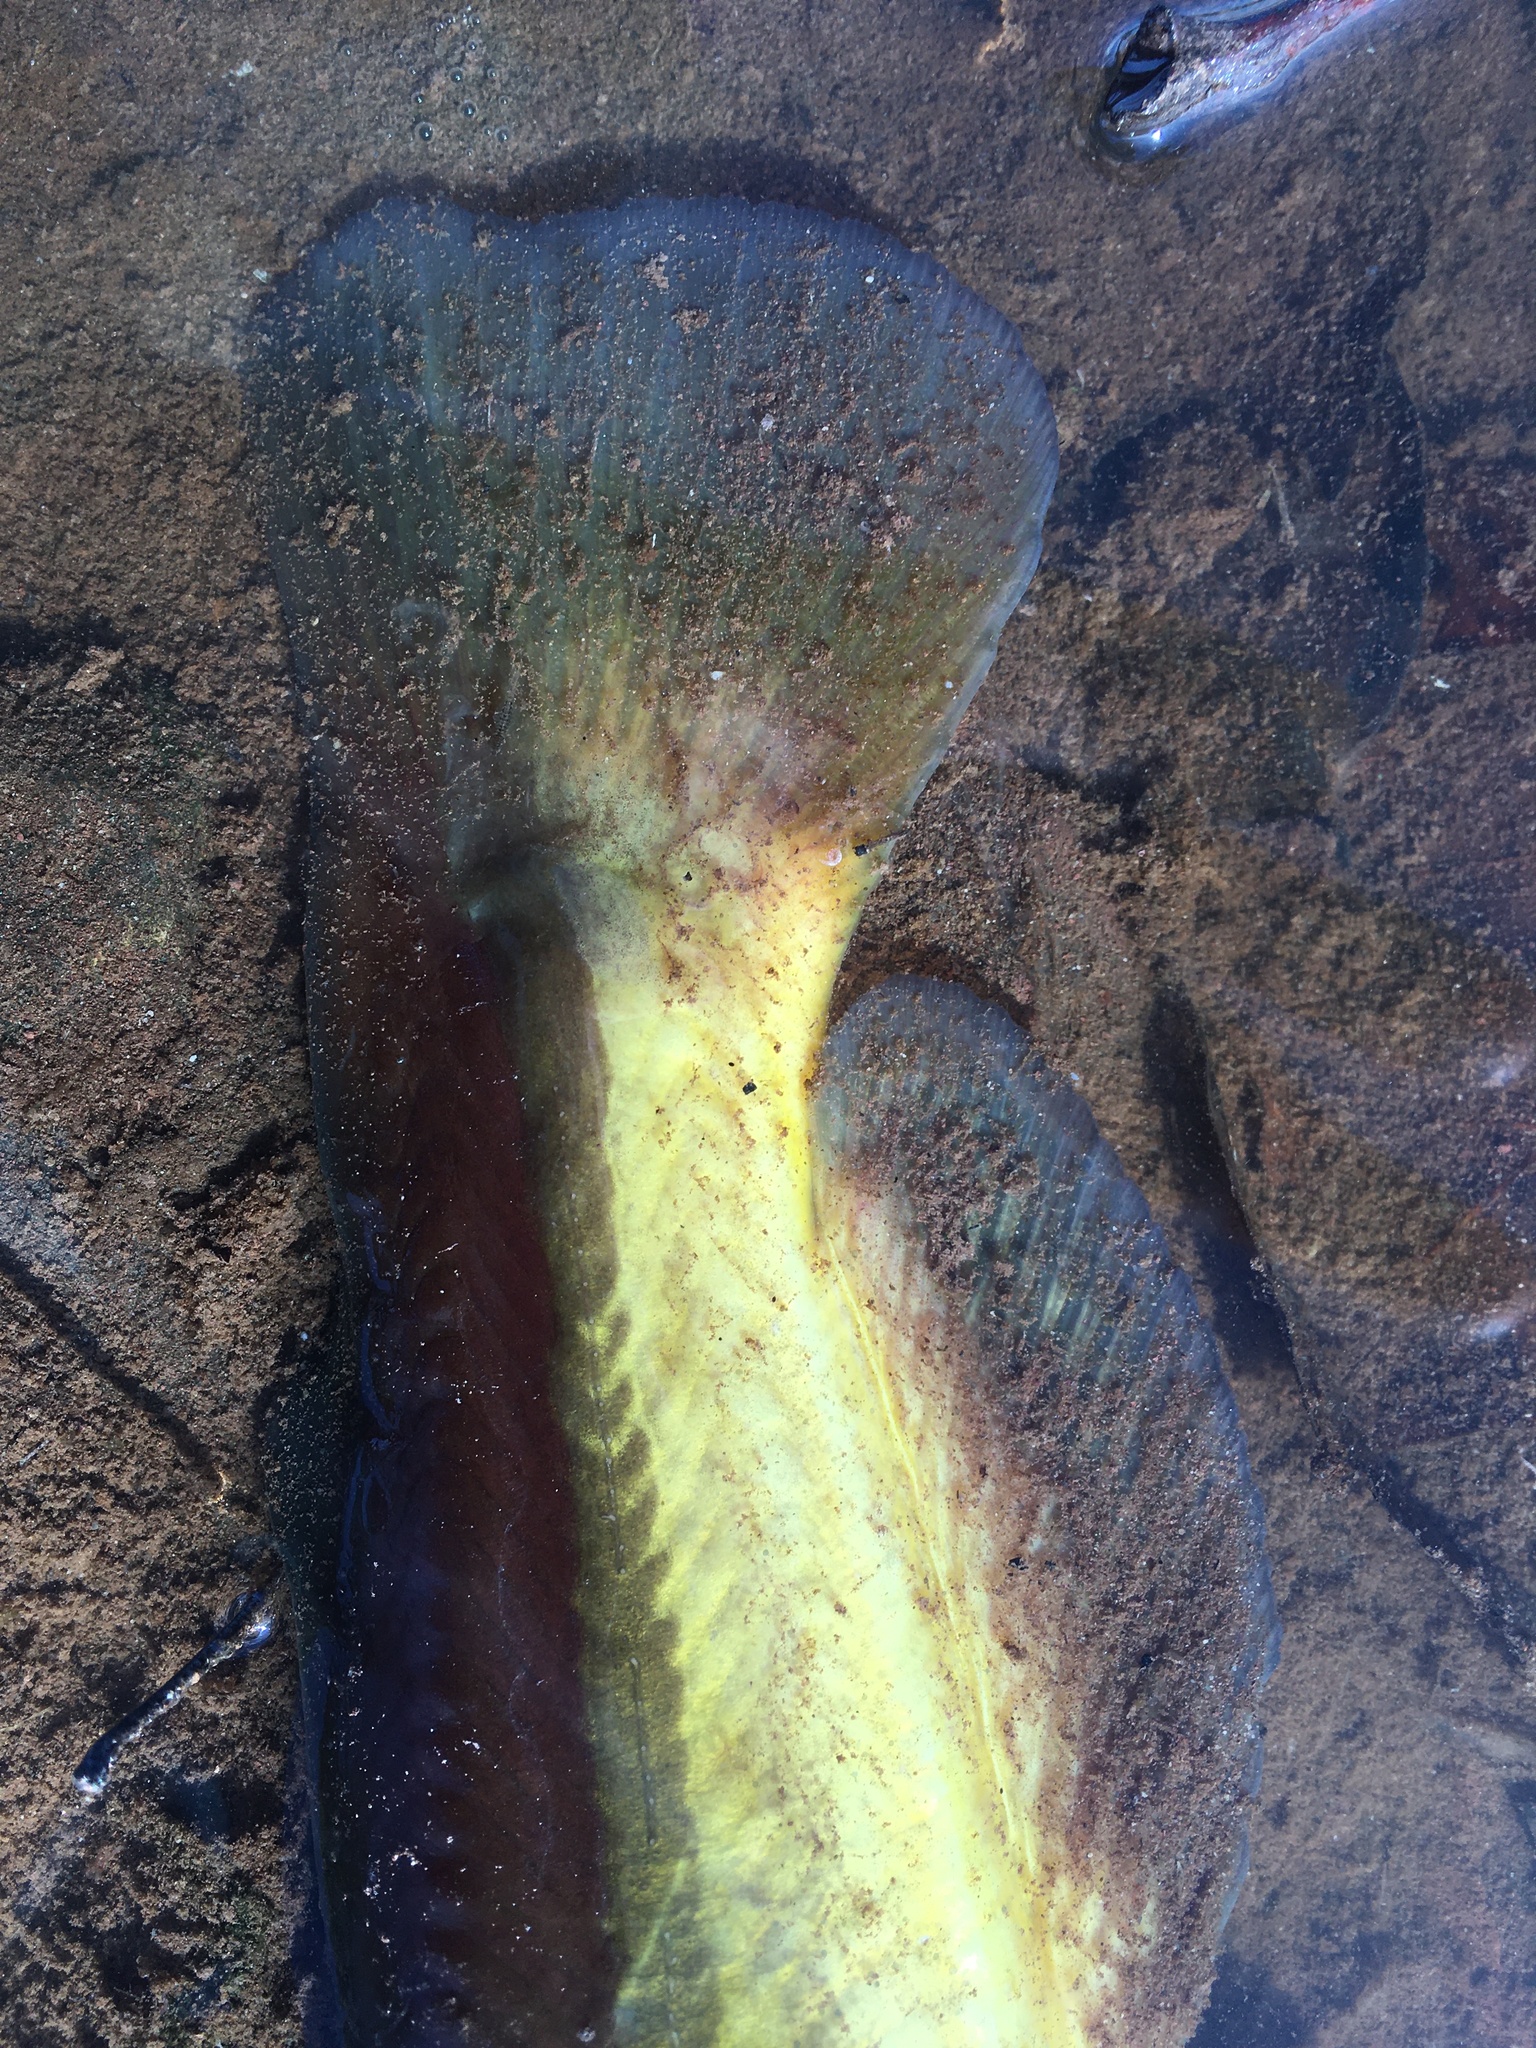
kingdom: Animalia
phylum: Chordata
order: Siluriformes
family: Ictaluridae
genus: Ameiurus
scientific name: Ameiurus natalis
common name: Yellow bullhead
